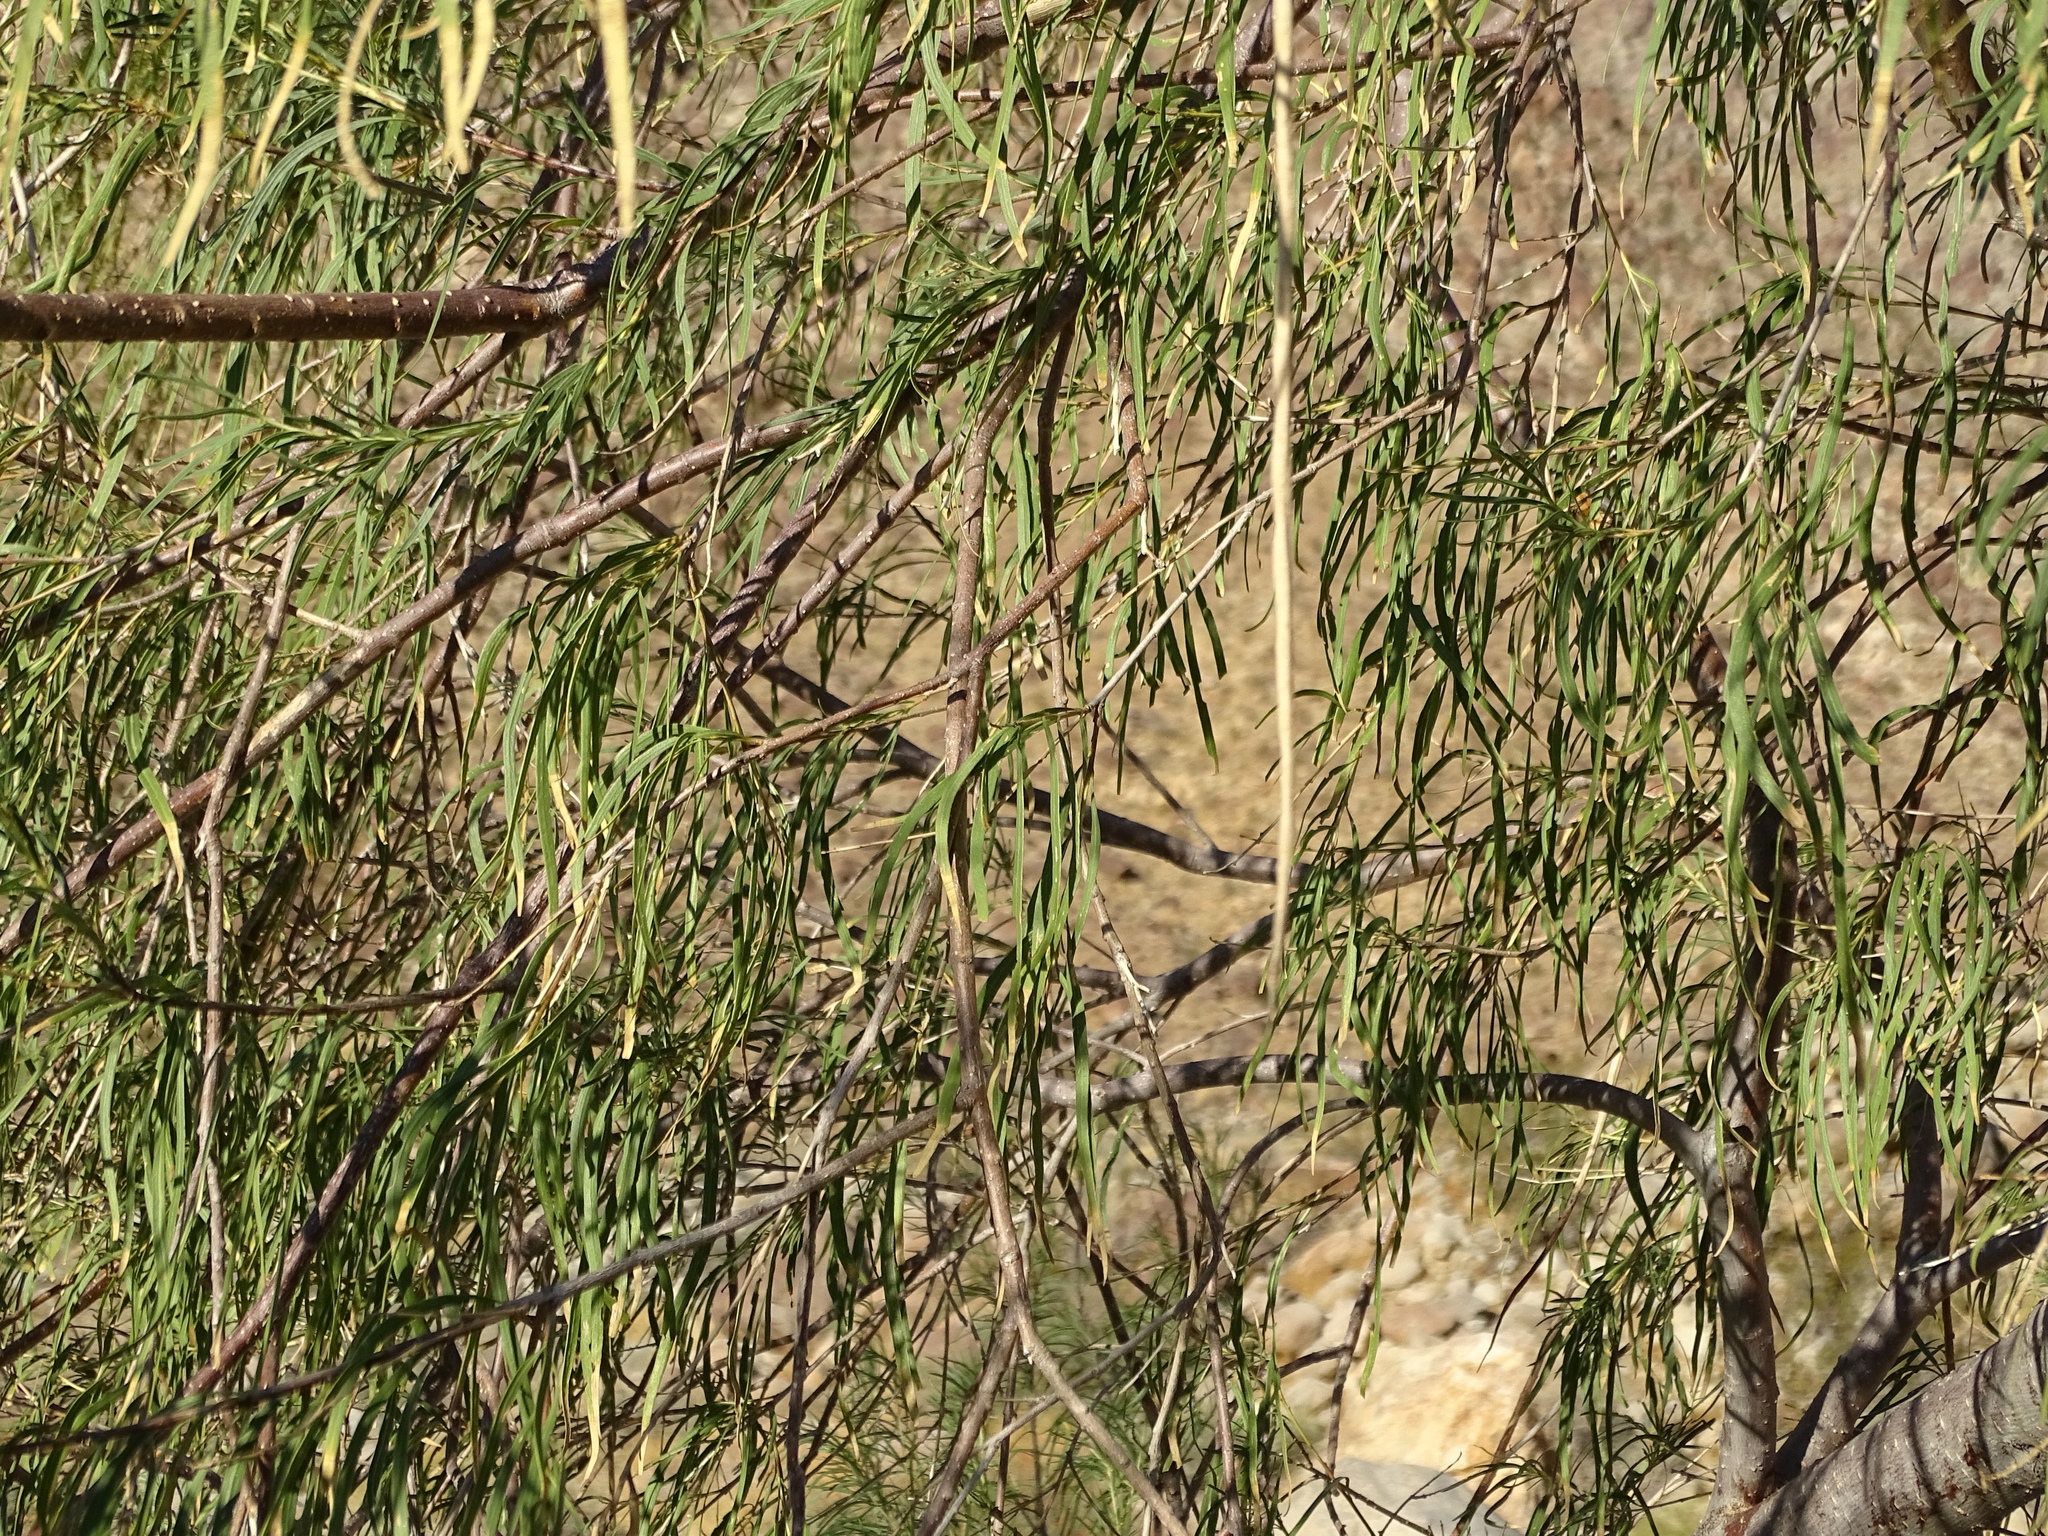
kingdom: Plantae
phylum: Tracheophyta
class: Magnoliopsida
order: Lamiales
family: Bignoniaceae
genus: Chilopsis
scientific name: Chilopsis linearis
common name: Desert-willow
